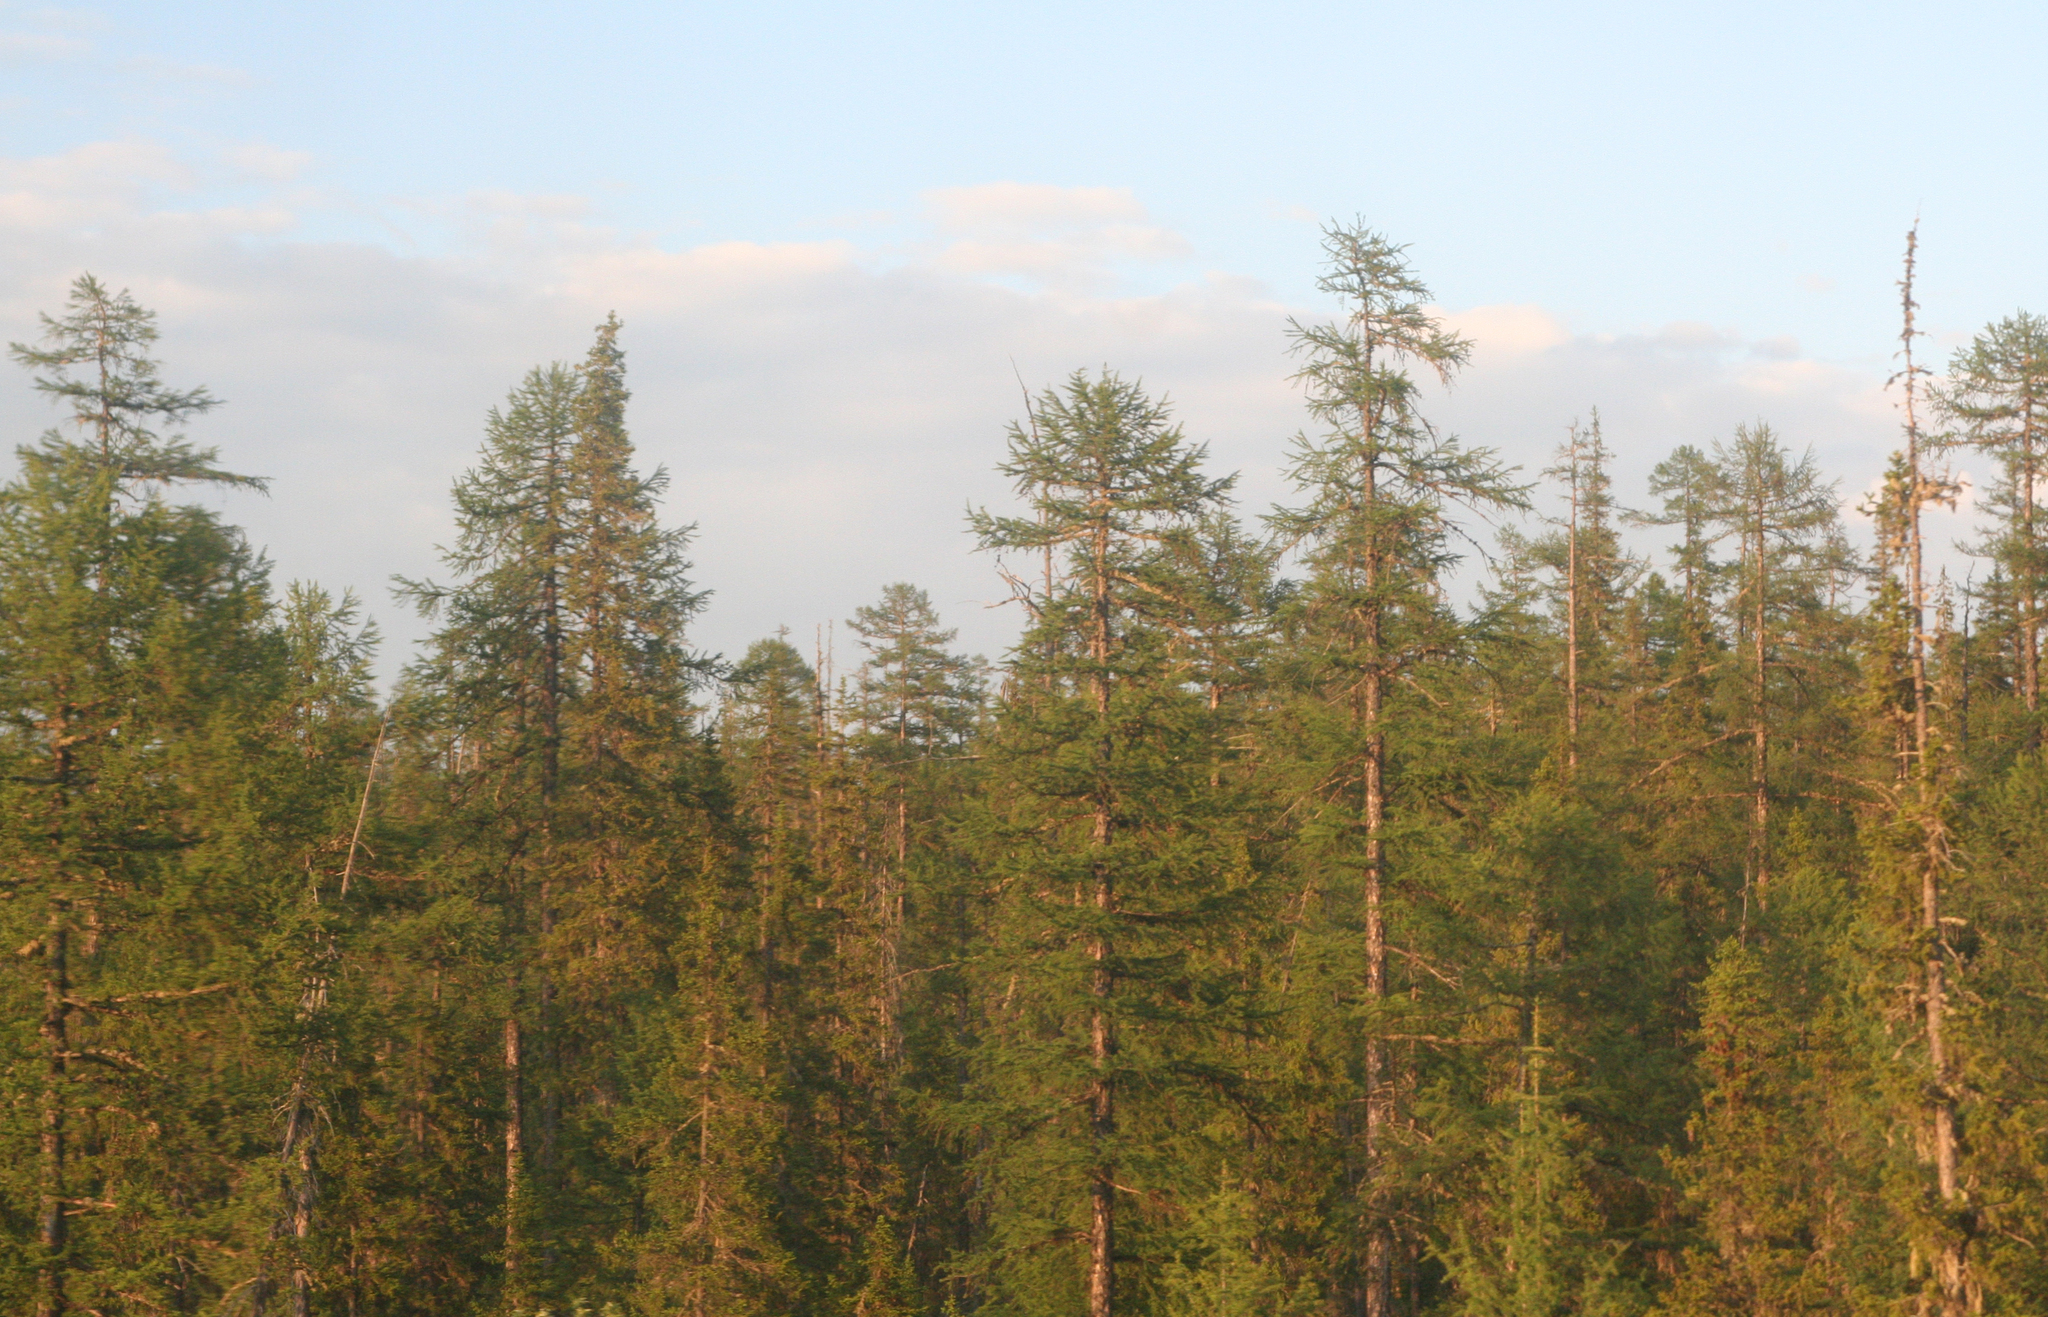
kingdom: Plantae
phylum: Tracheophyta
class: Pinopsida
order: Pinales
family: Pinaceae
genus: Larix
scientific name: Larix gmelinii
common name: Dahurian larch
